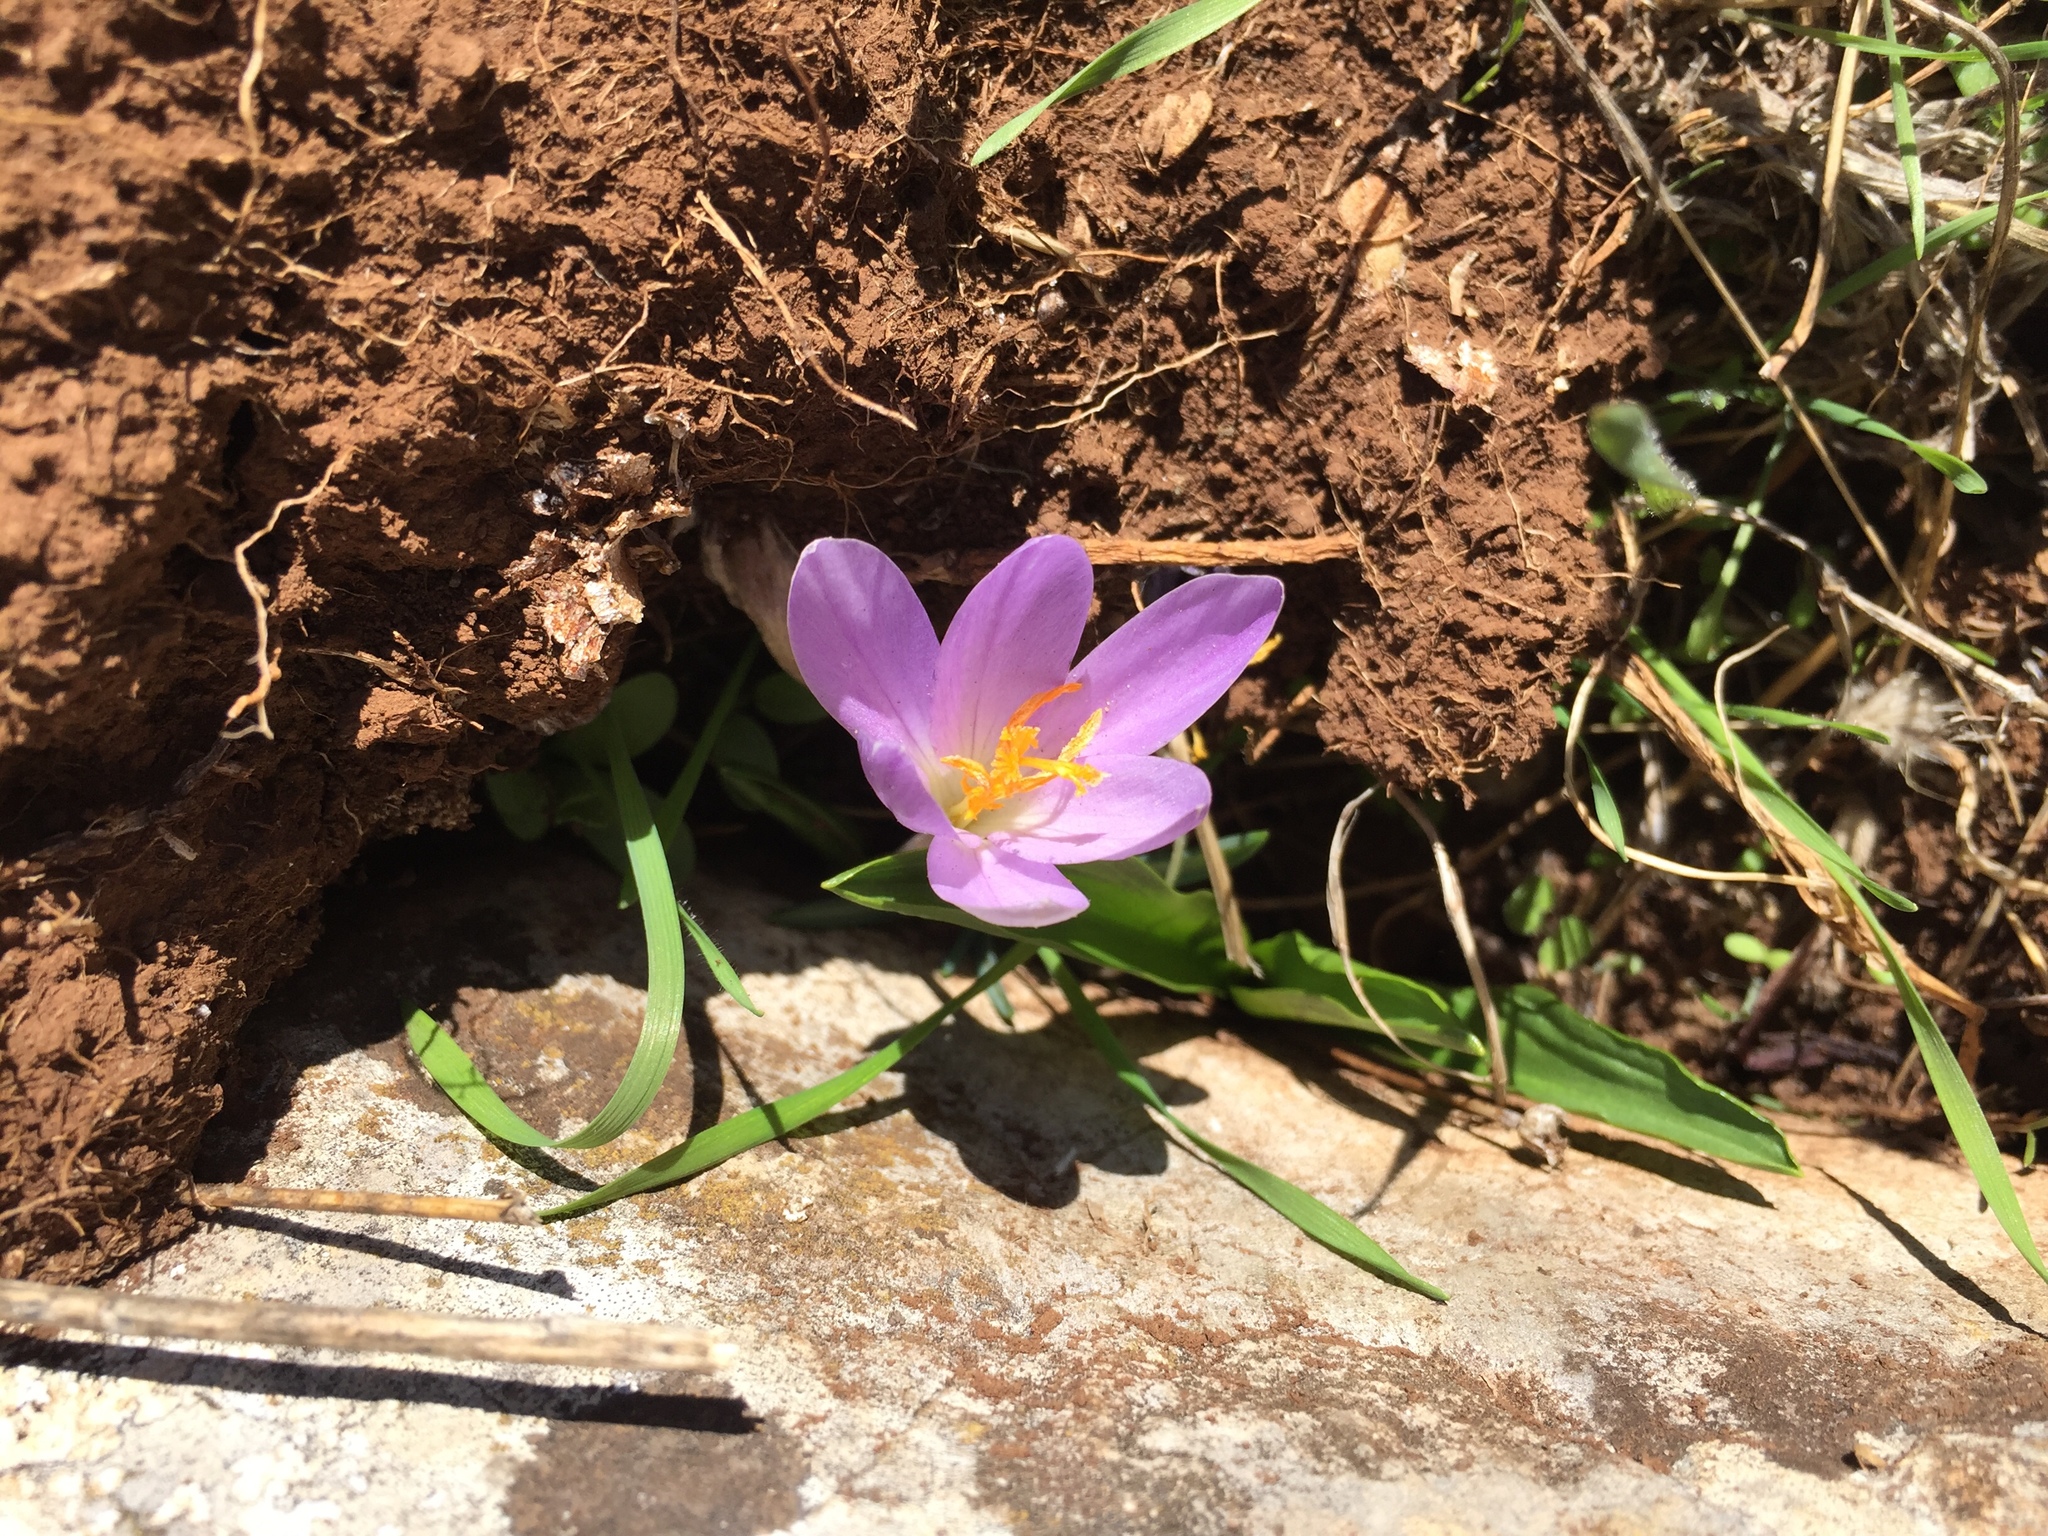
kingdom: Plantae
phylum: Tracheophyta
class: Liliopsida
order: Asparagales
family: Iridaceae
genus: Crocus
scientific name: Crocus serotinus
